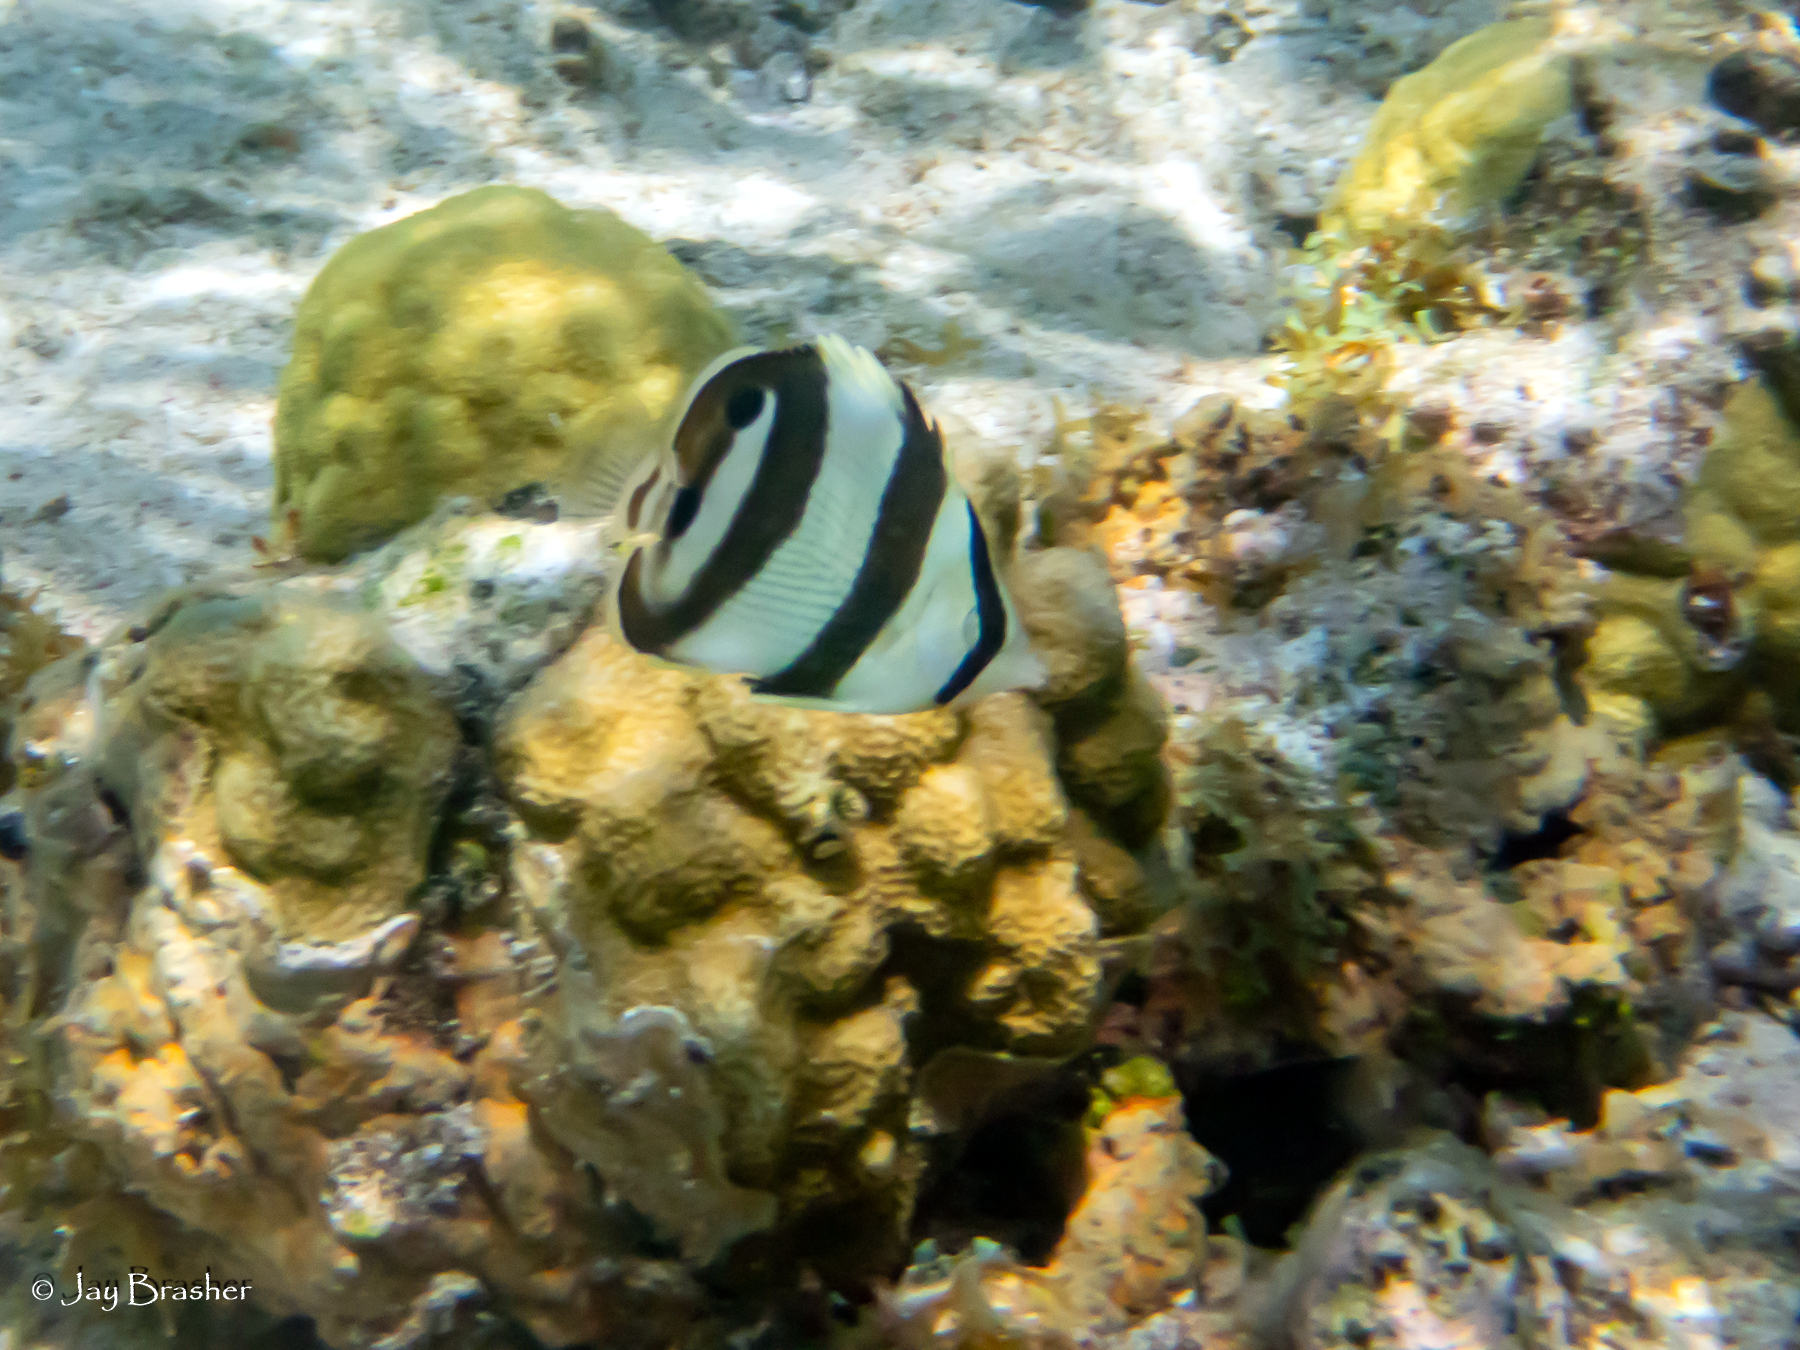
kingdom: Animalia
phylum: Chordata
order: Perciformes
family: Chaetodontidae
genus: Chaetodon
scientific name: Chaetodon striatus
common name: Banded butterflyfish
